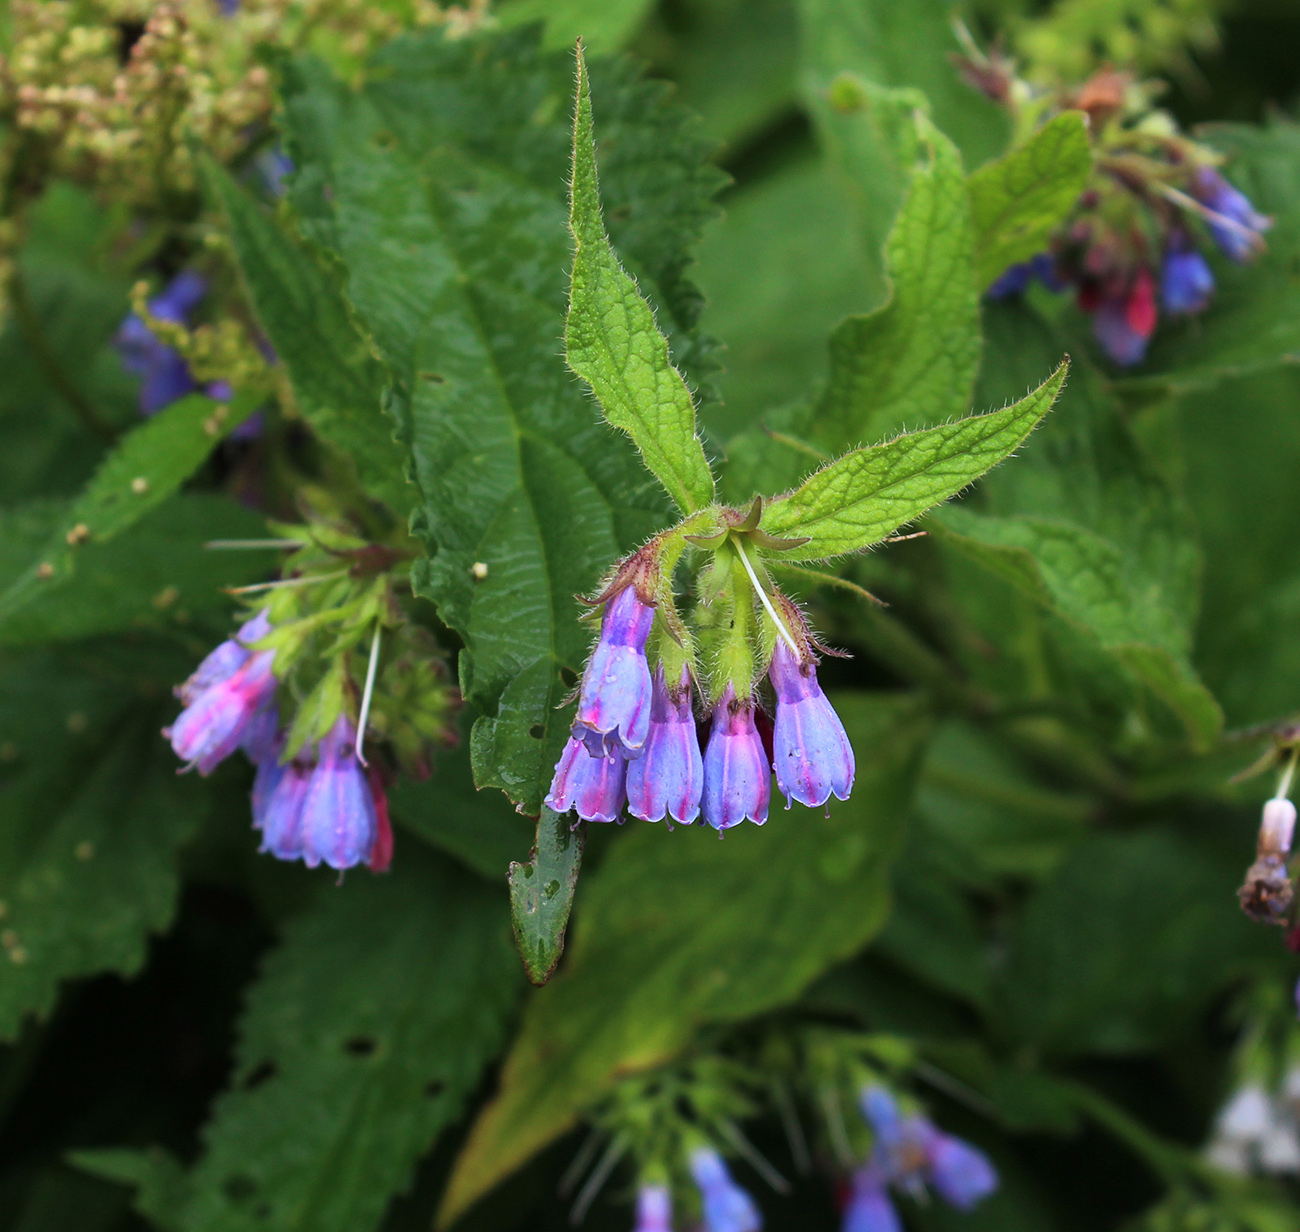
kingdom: Plantae
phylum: Tracheophyta
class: Magnoliopsida
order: Boraginales
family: Boraginaceae
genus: Symphytum
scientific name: Symphytum uplandicum
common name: Russian comfrey
